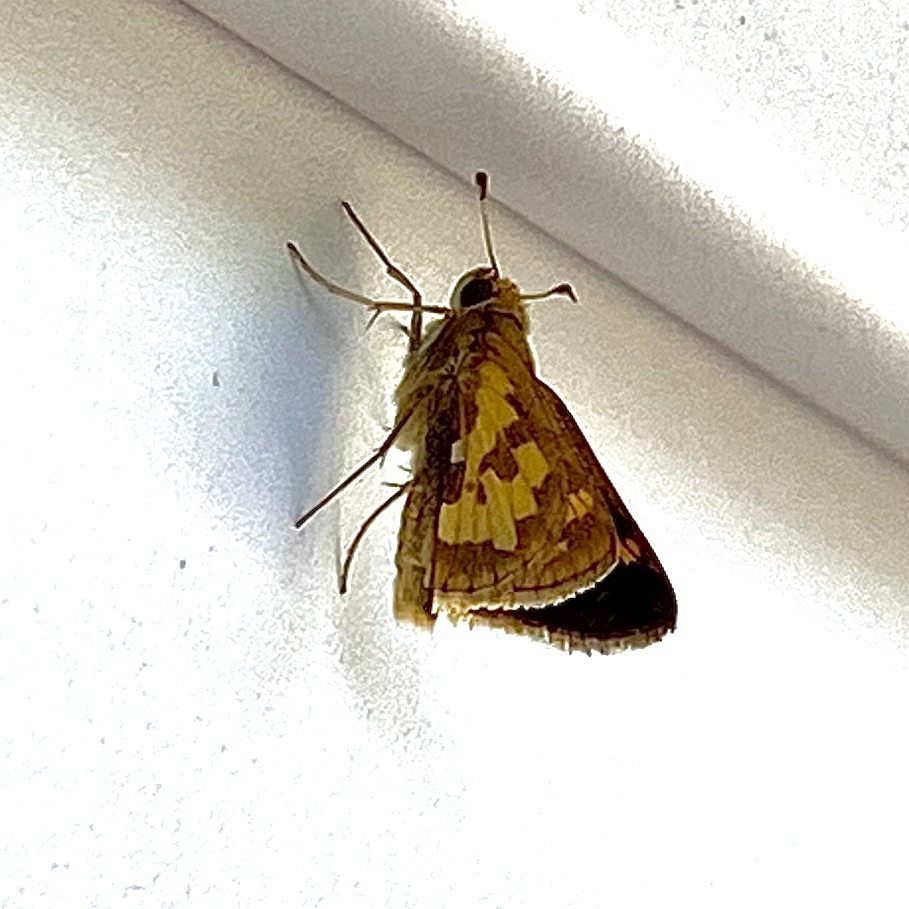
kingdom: Animalia
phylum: Arthropoda
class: Insecta
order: Lepidoptera
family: Hesperiidae
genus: Polites
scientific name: Polites coras
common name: Peck's skipper
